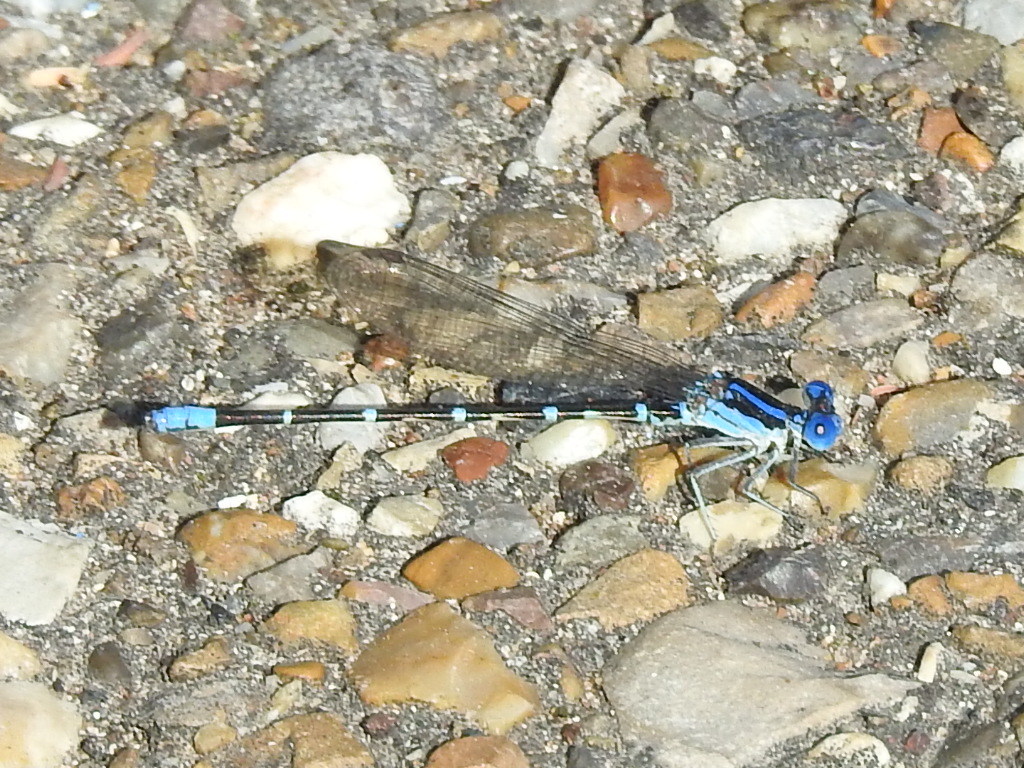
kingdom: Animalia
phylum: Arthropoda
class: Insecta
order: Odonata
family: Coenagrionidae
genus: Argia
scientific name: Argia sedula
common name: Blue-ringed dancer
